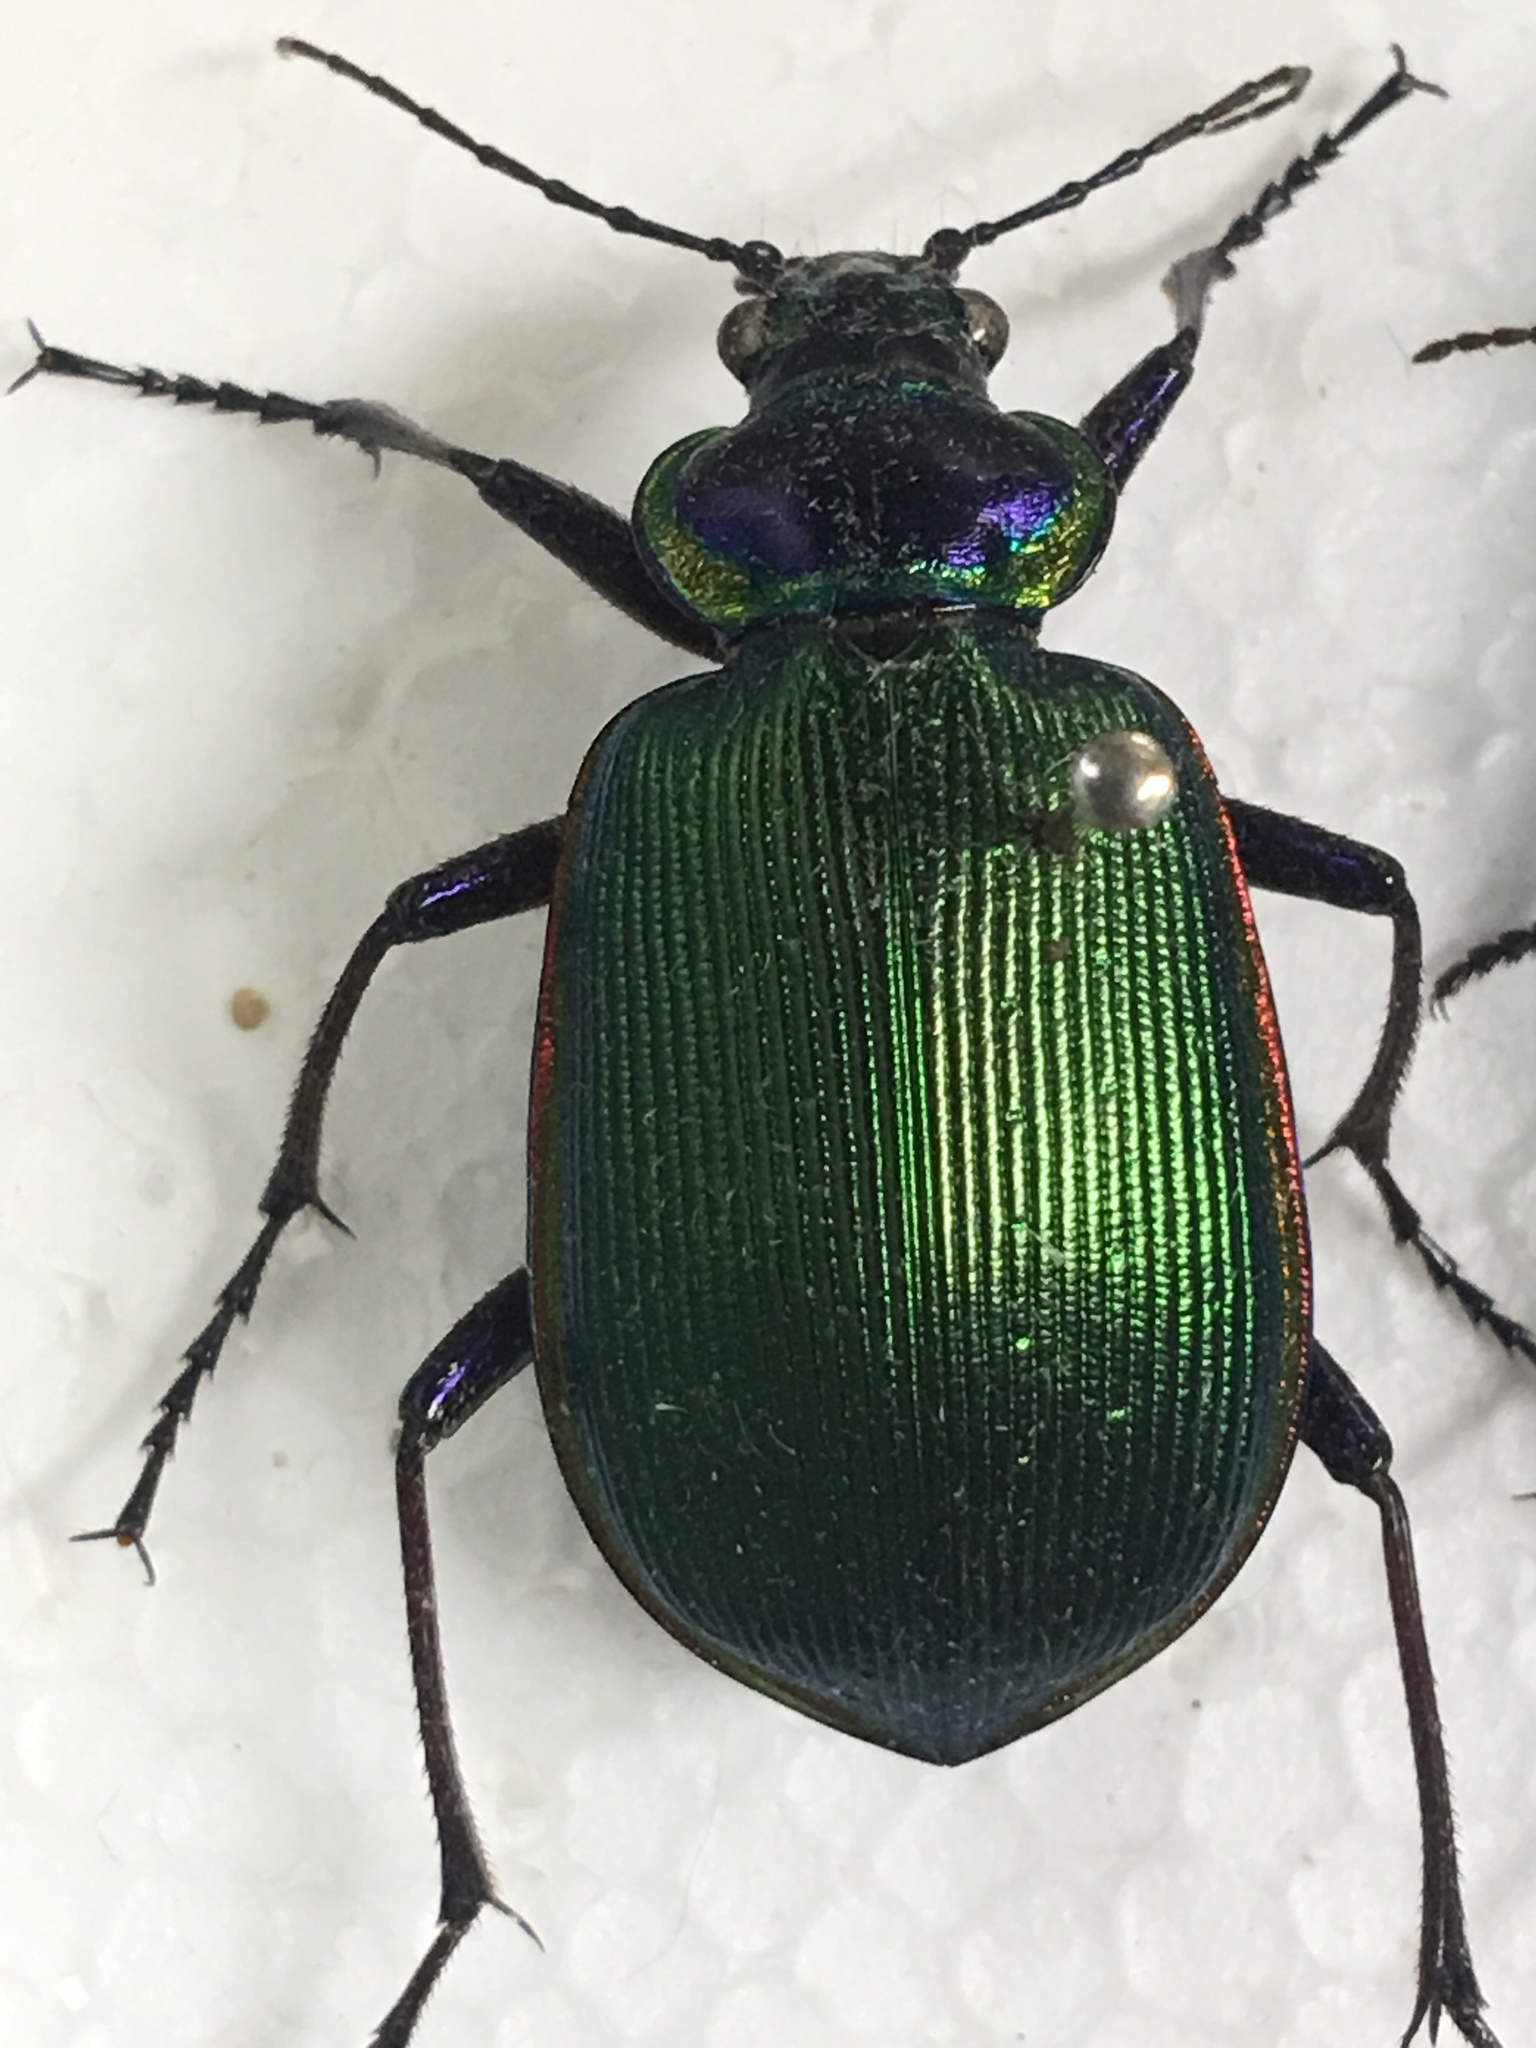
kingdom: Animalia
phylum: Arthropoda
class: Insecta
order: Coleoptera
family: Carabidae
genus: Calosoma
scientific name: Calosoma scrutator
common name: Fiery searcher beetle
